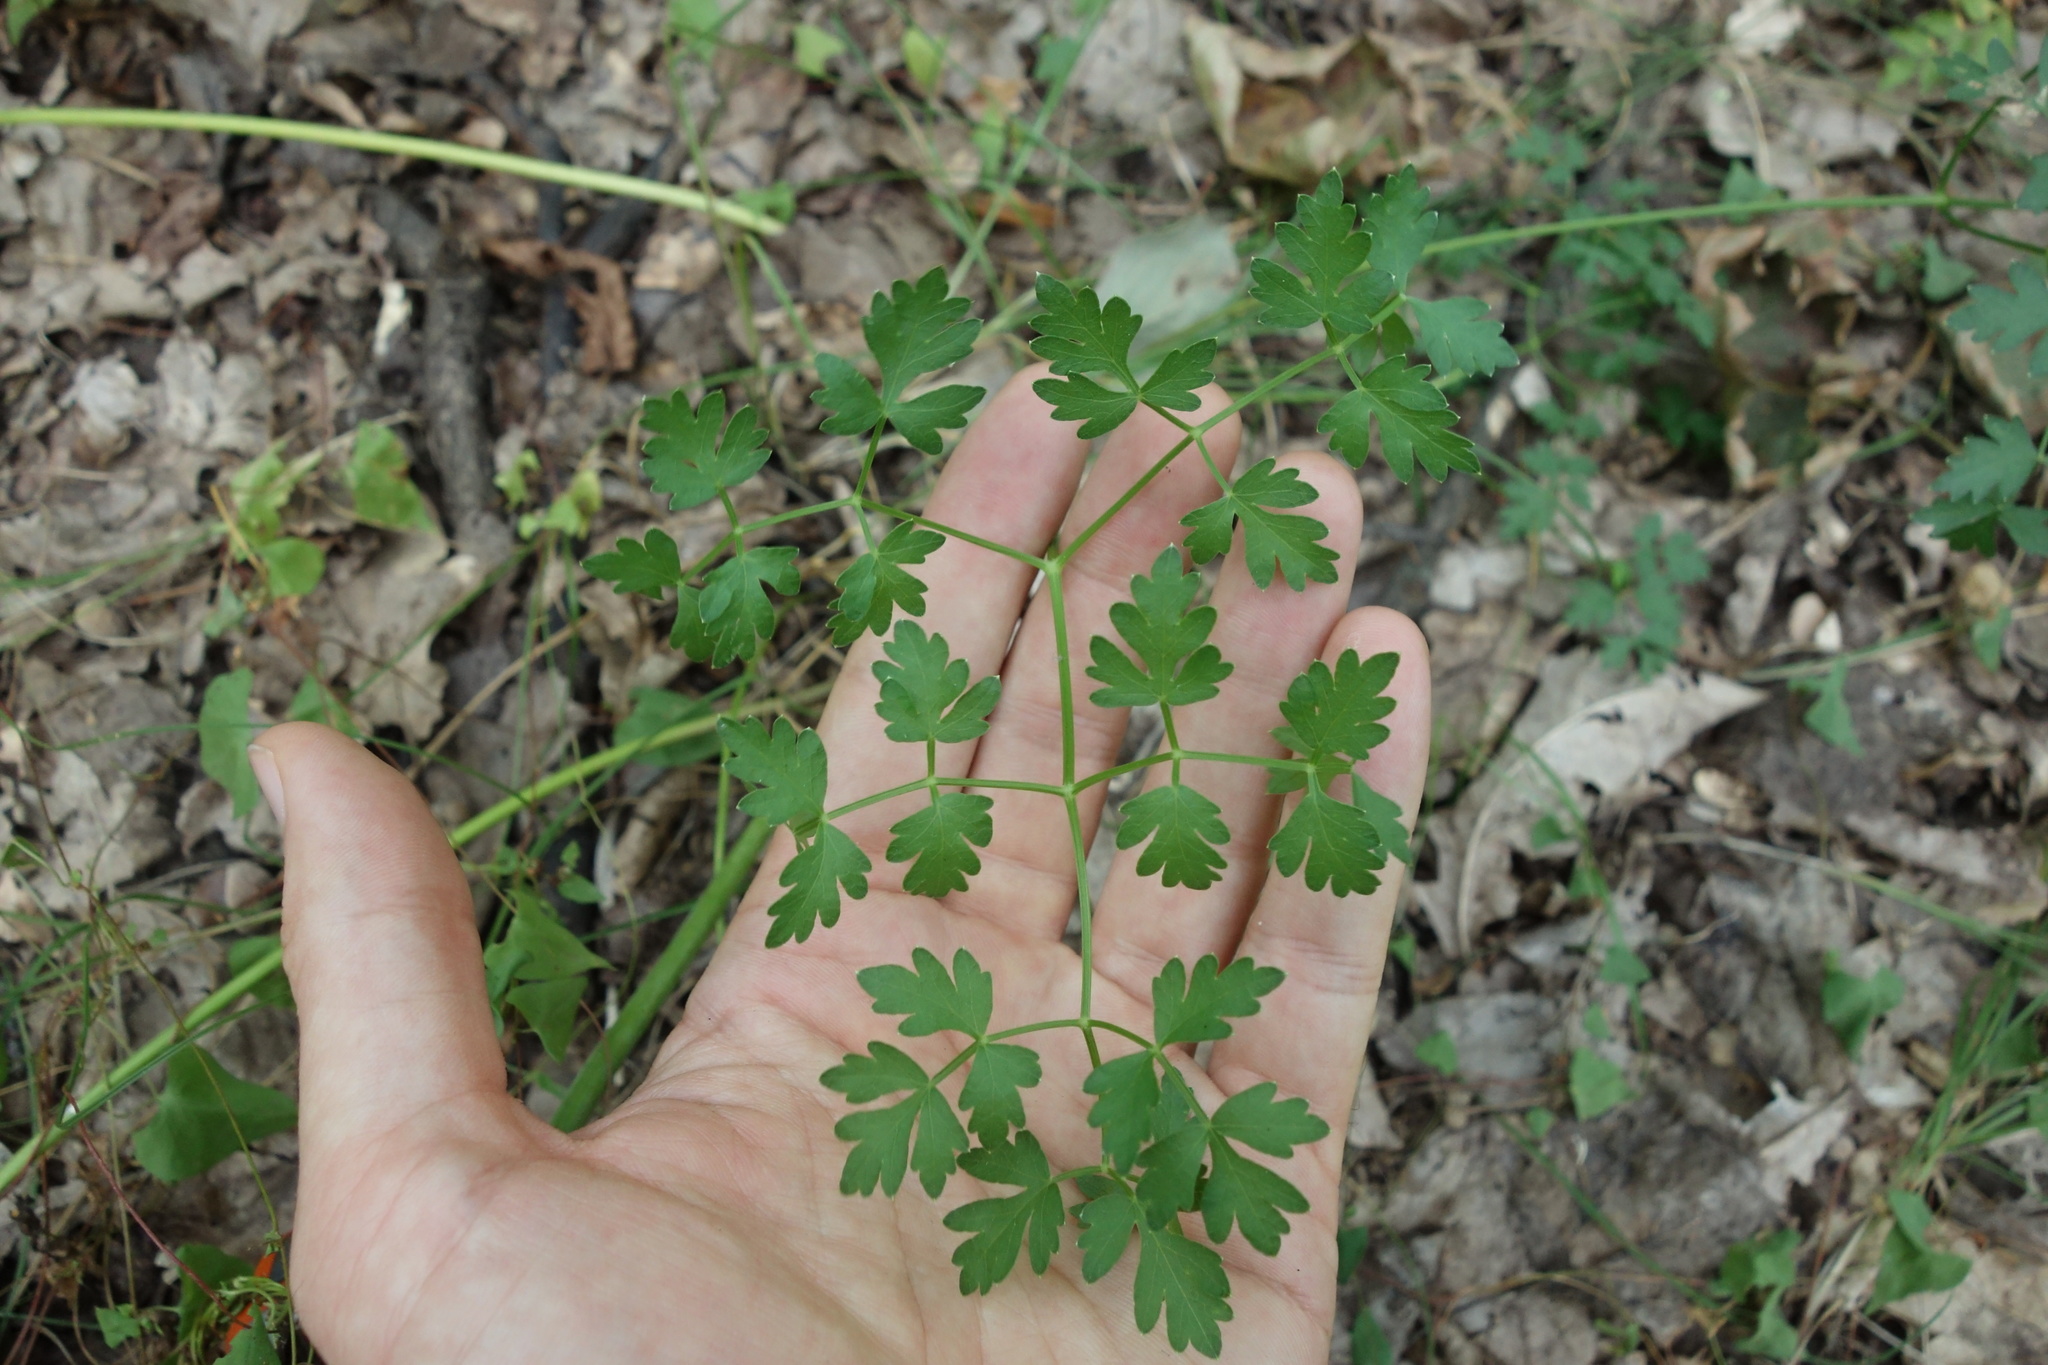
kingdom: Plantae
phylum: Tracheophyta
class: Magnoliopsida
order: Apiales
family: Apiaceae
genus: Oreoselinum
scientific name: Oreoselinum nigrum
